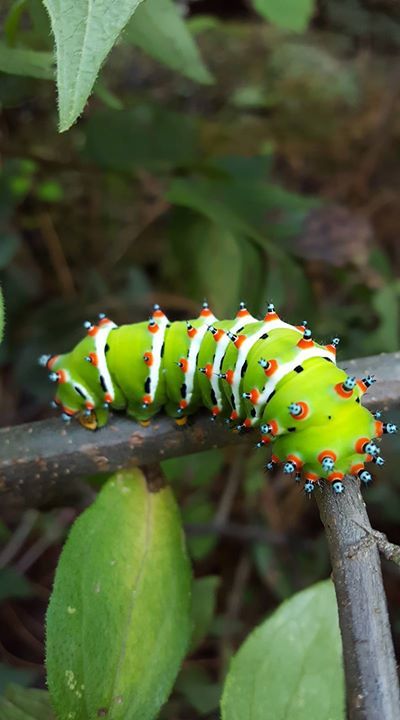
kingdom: Animalia
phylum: Arthropoda
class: Insecta
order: Lepidoptera
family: Saturniidae
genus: Eupackardia
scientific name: Eupackardia calleta
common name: Calleta silkmoth
